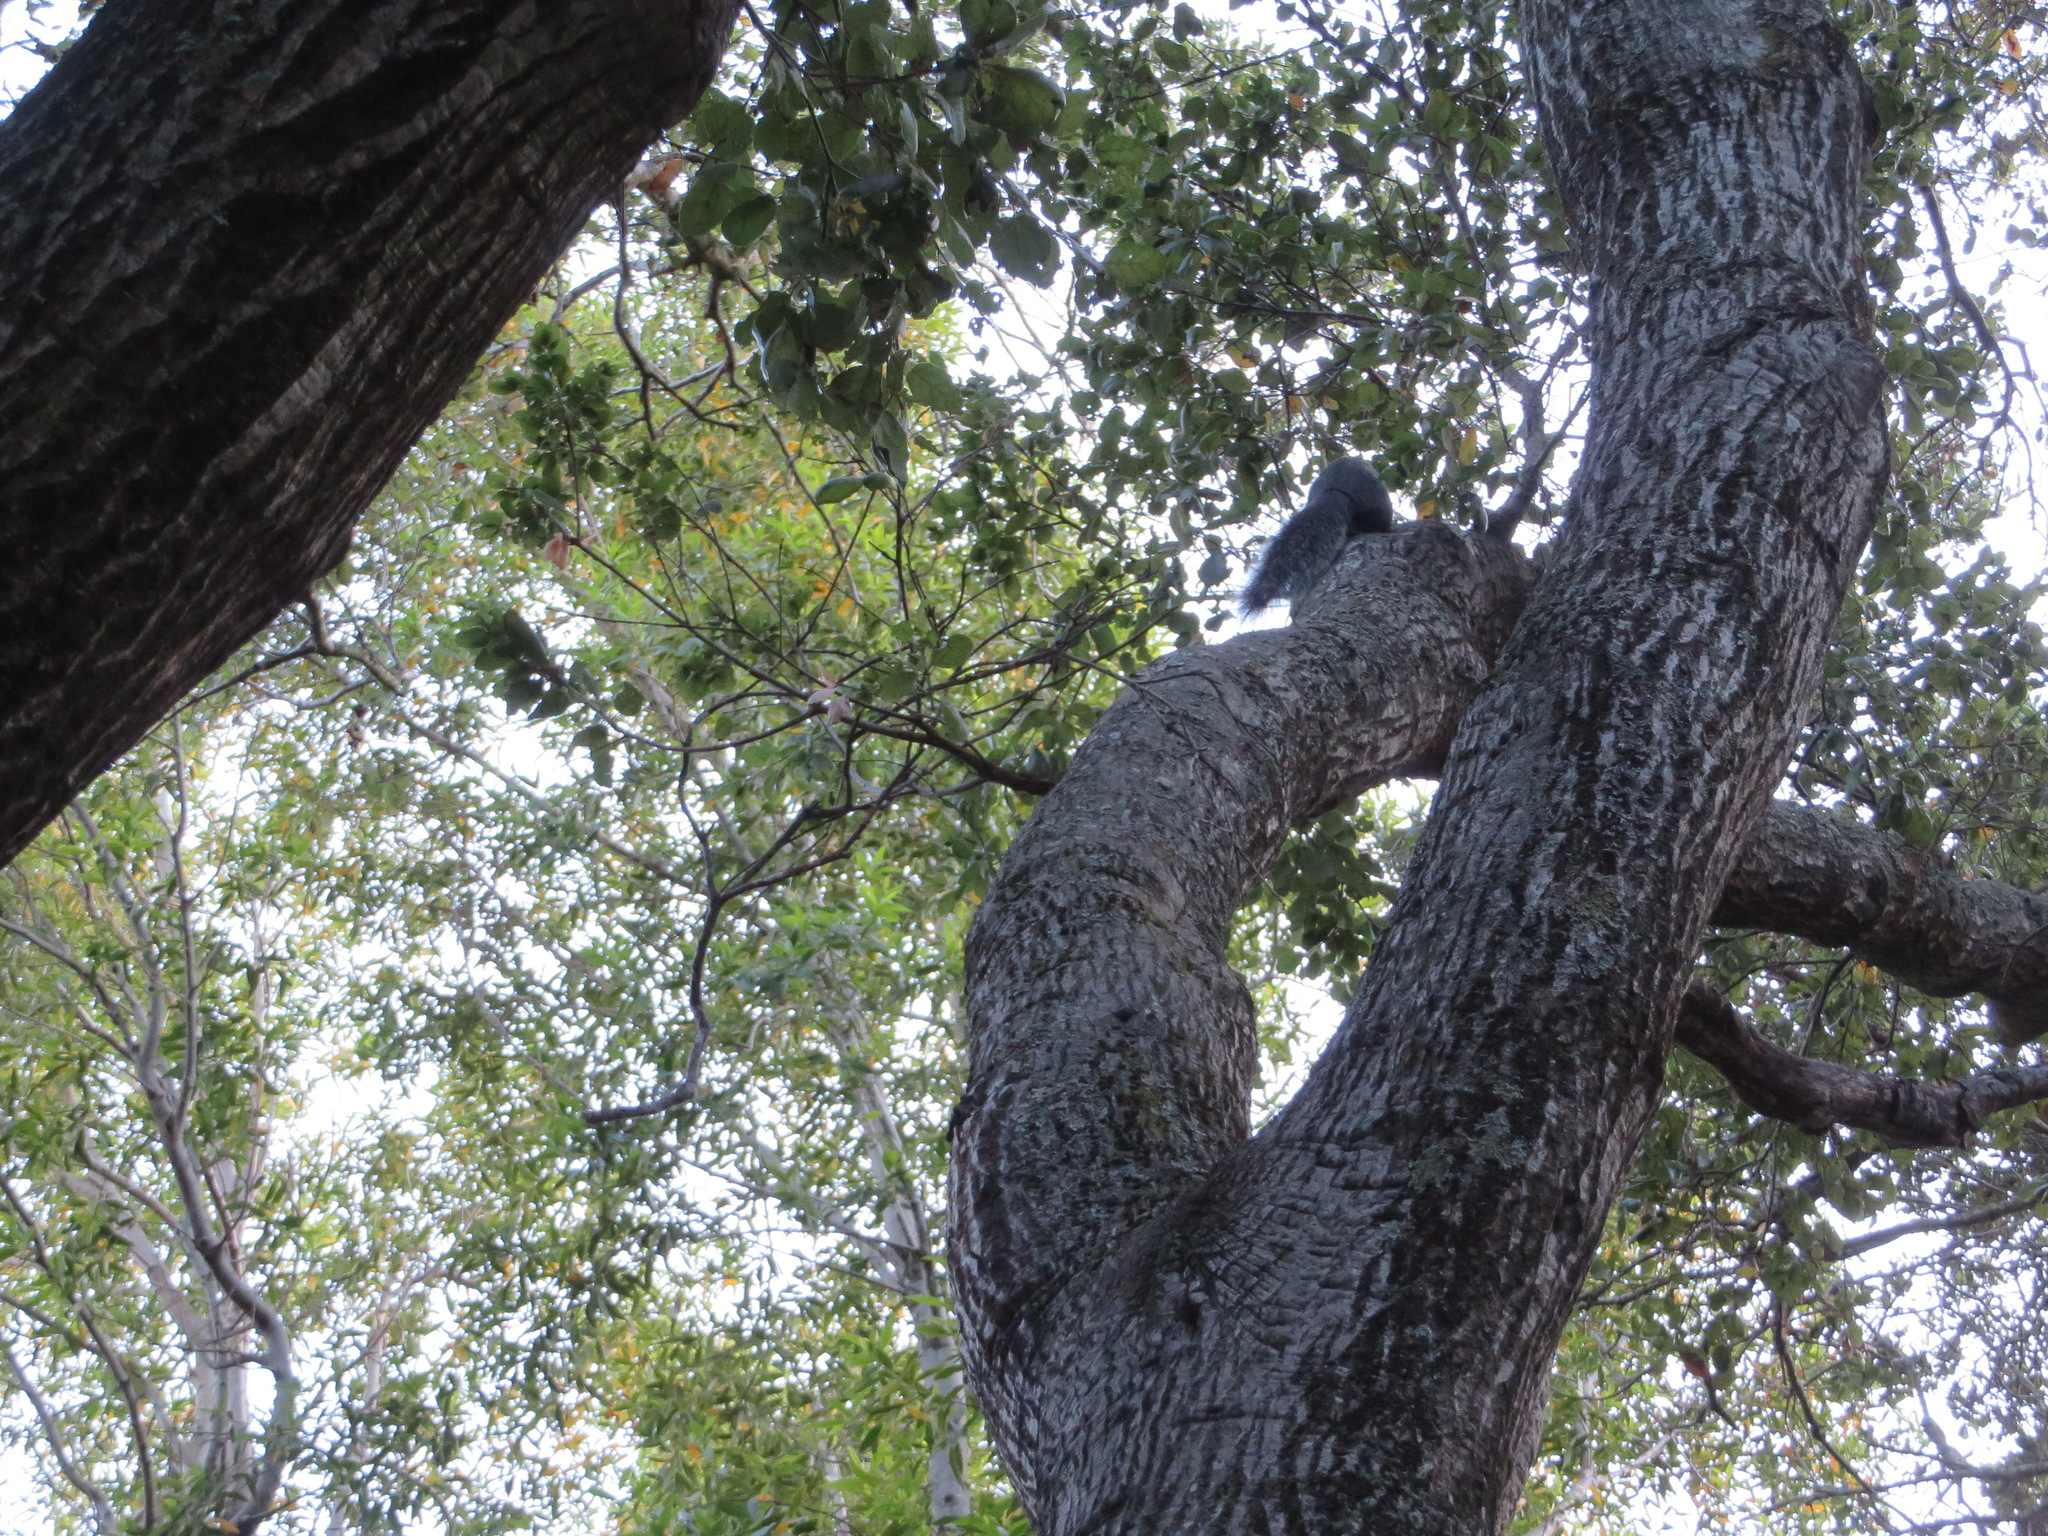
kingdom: Animalia
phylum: Chordata
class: Mammalia
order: Rodentia
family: Sciuridae
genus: Sciurus
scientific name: Sciurus griseus
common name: Western gray squirrel
